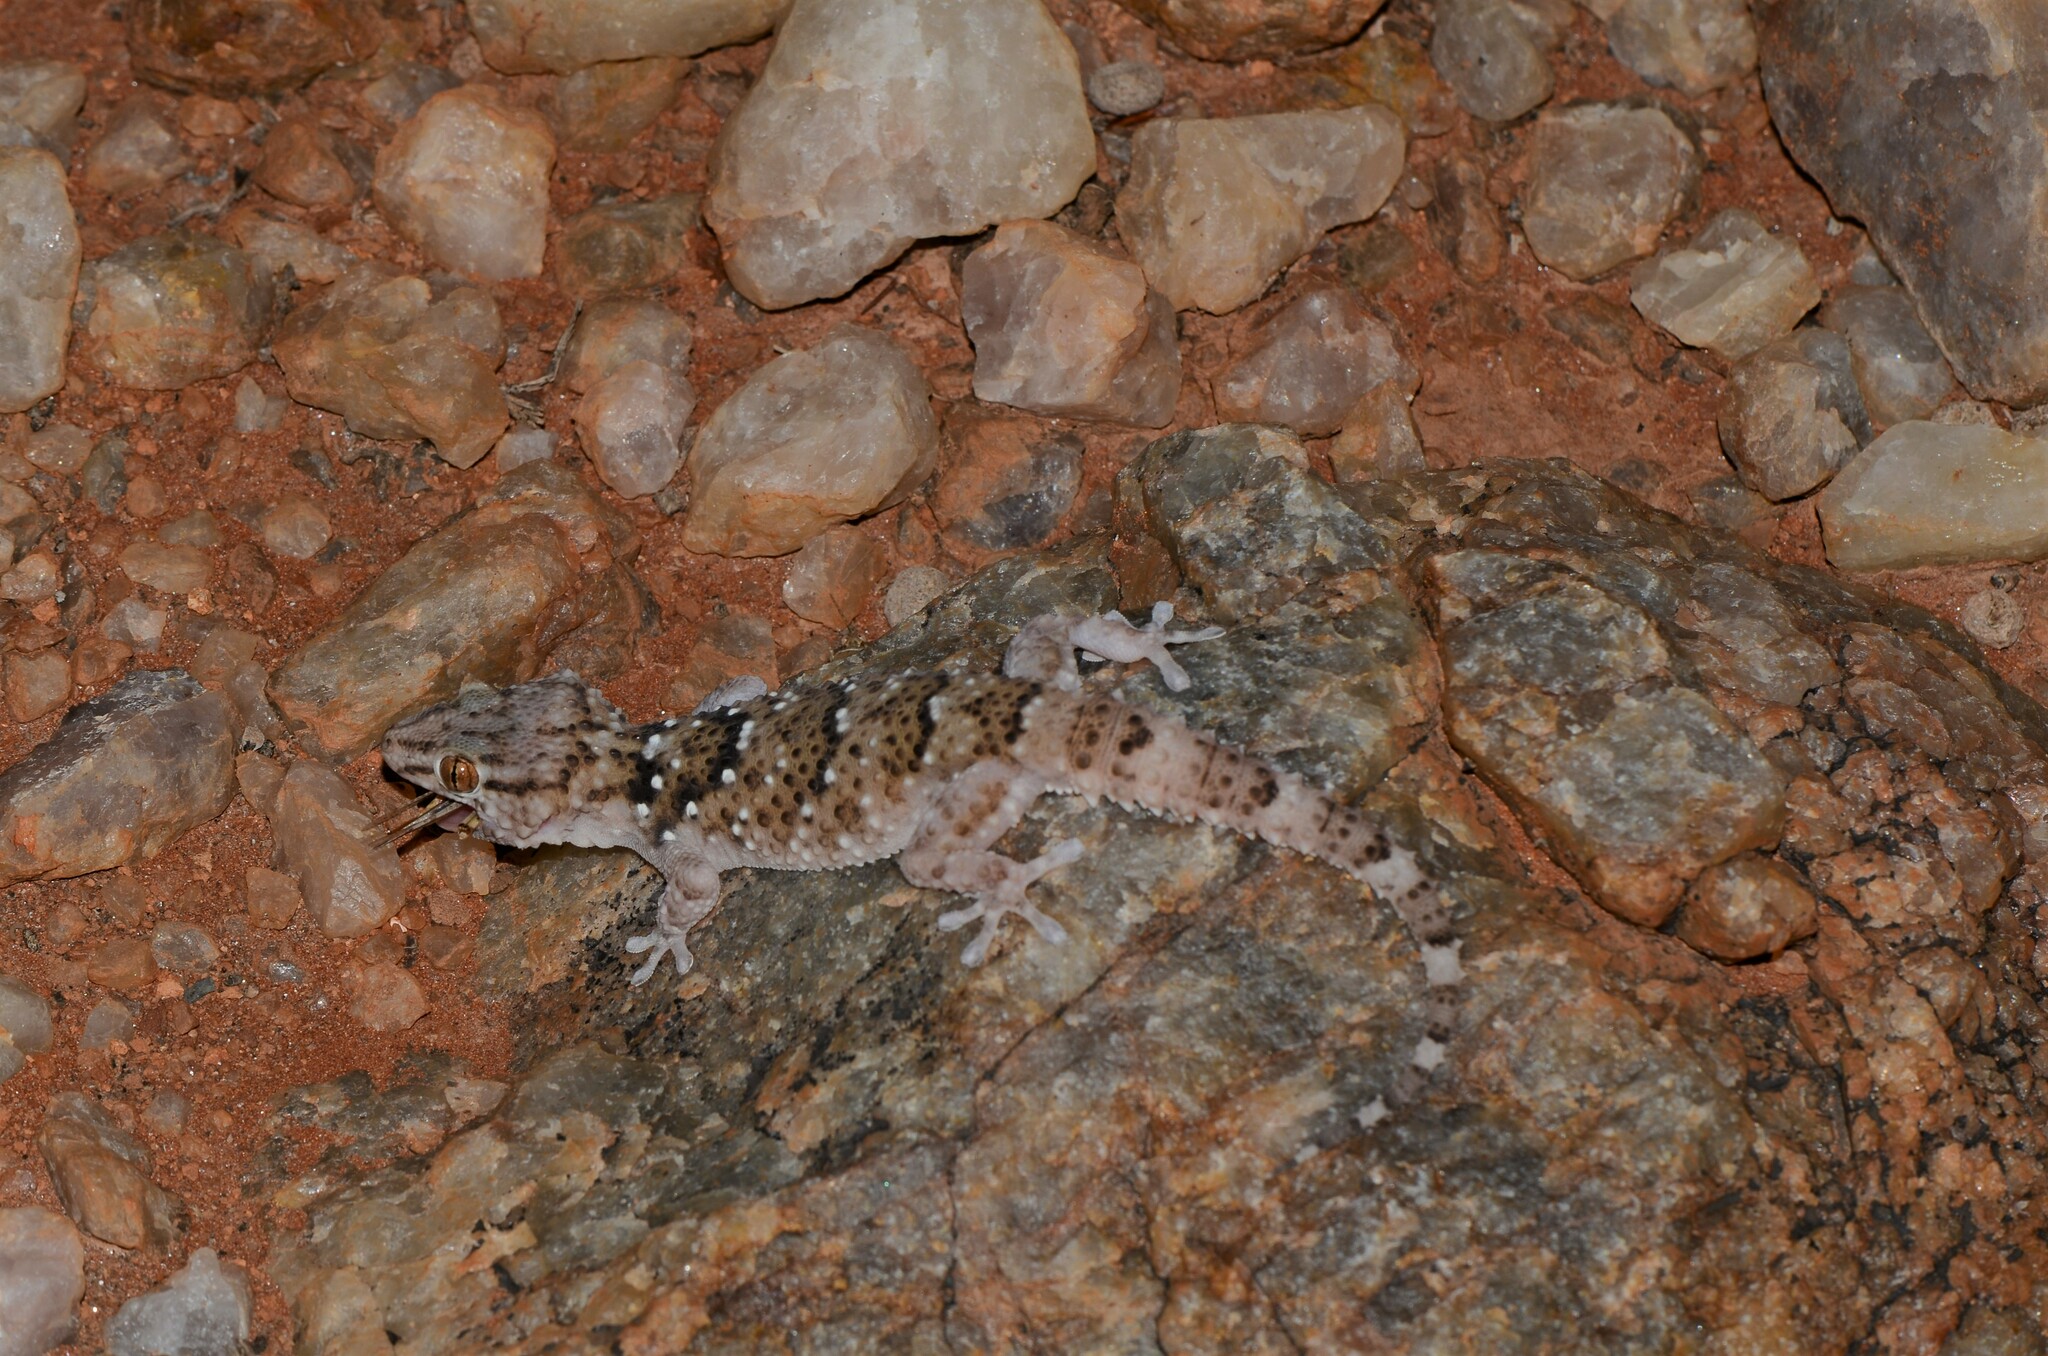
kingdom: Animalia
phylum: Chordata
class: Squamata
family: Gekkonidae
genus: Chondrodactylus
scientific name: Chondrodactylus laevigatus
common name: Fischer's thick-toed gecko
